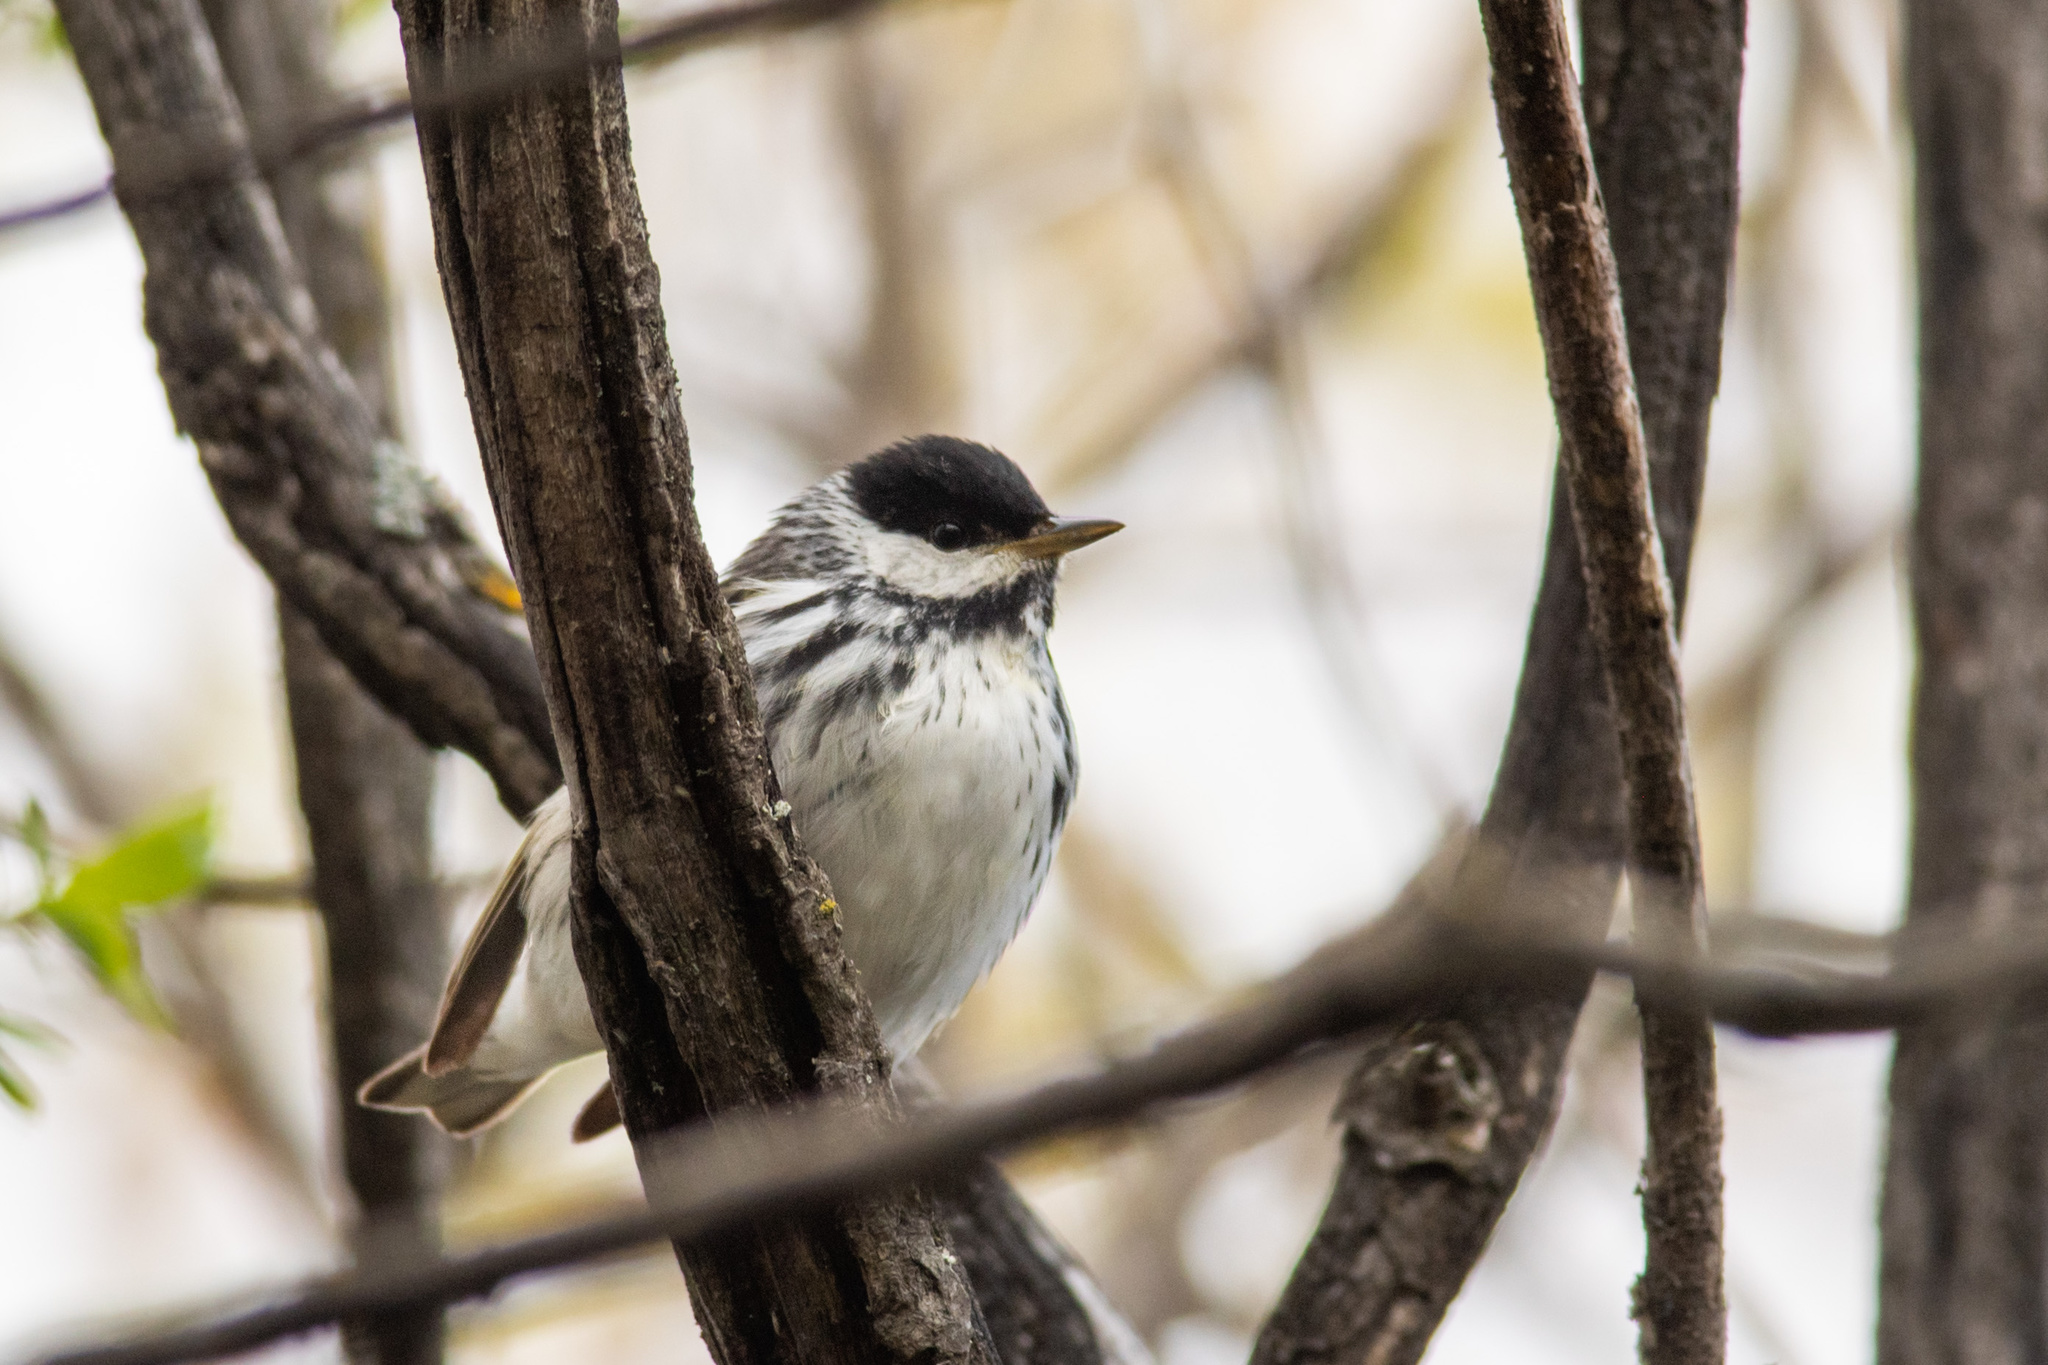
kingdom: Animalia
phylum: Chordata
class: Aves
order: Passeriformes
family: Parulidae
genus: Setophaga
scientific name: Setophaga striata
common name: Blackpoll warbler
